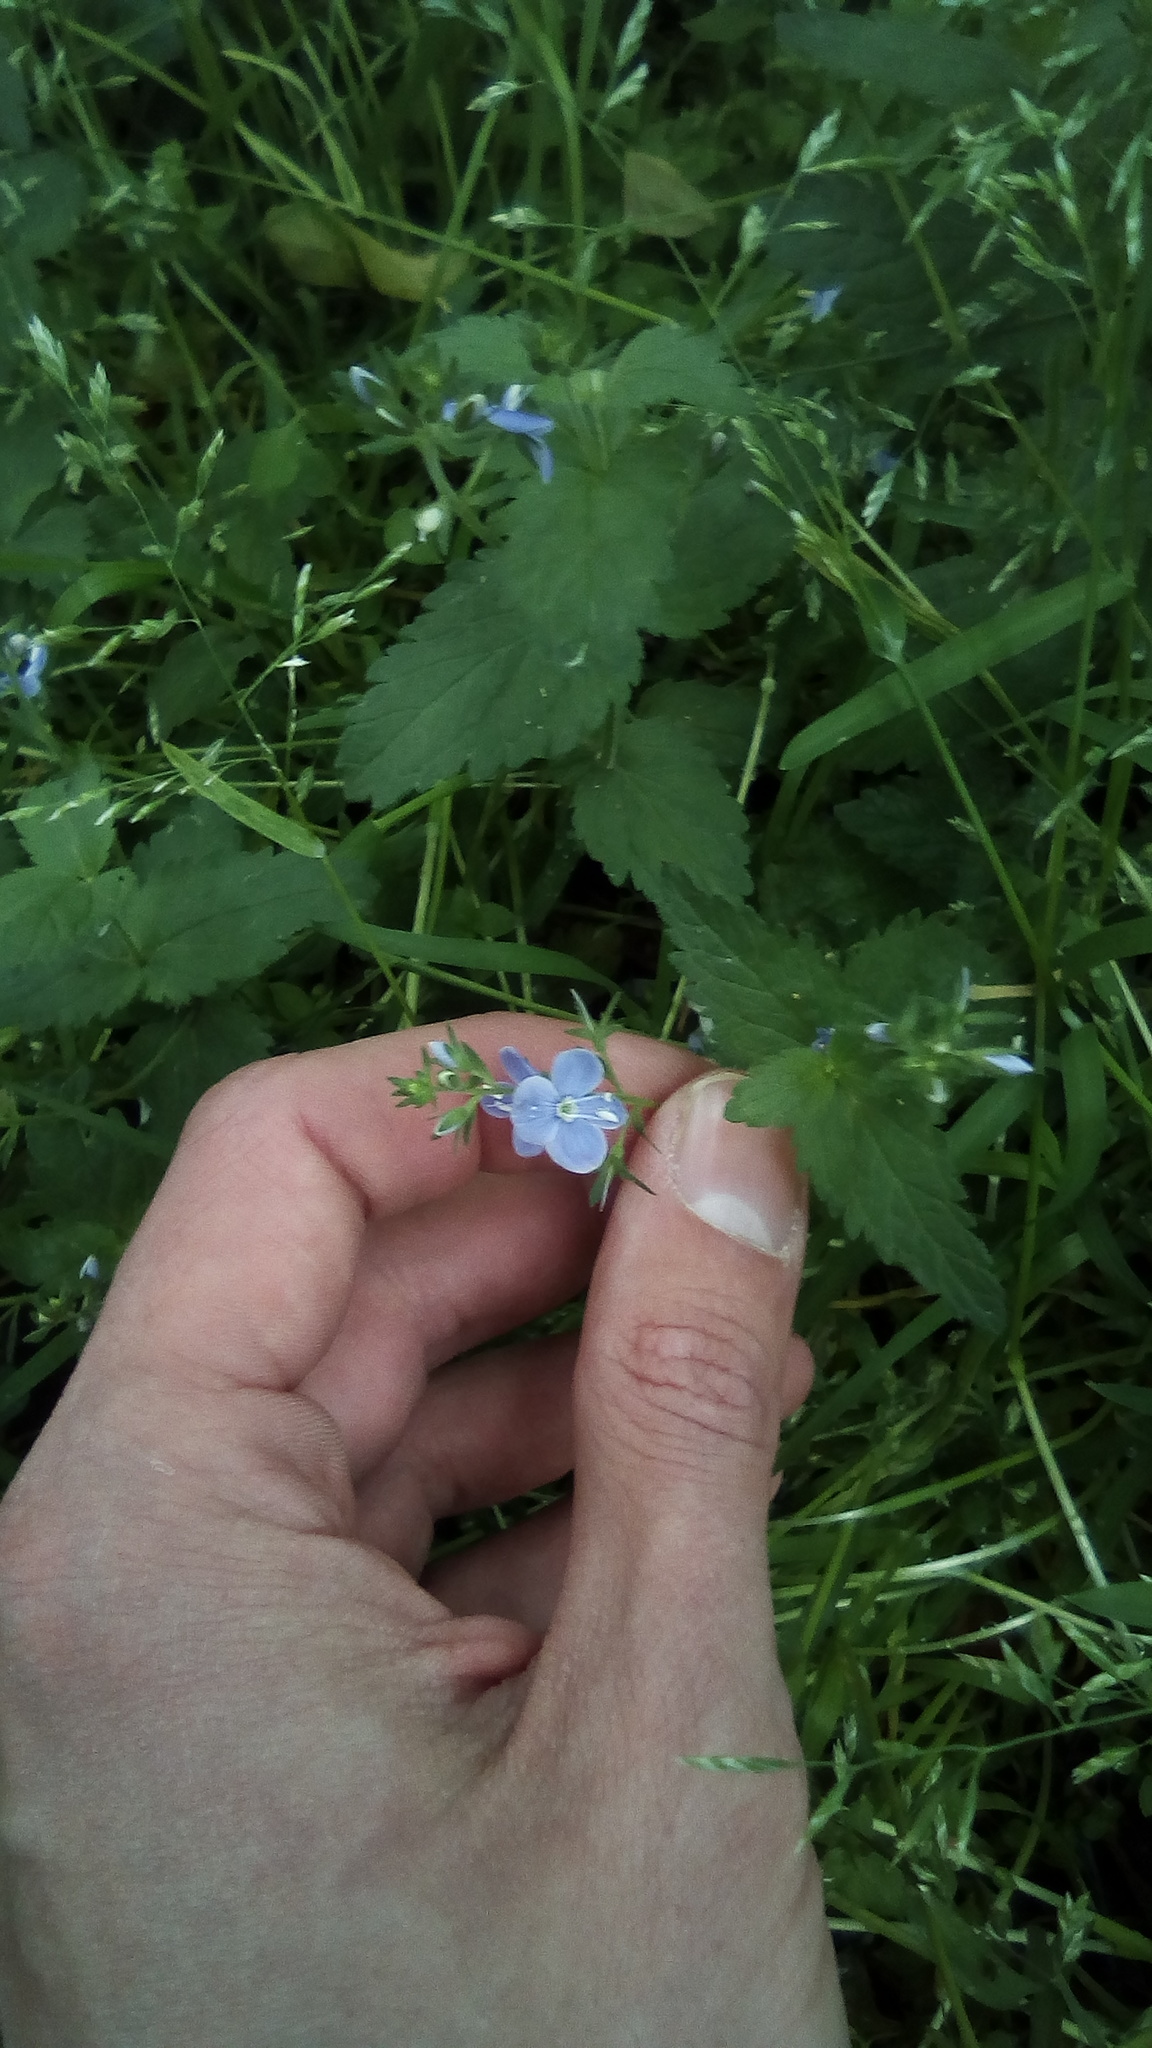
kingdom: Plantae
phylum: Tracheophyta
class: Magnoliopsida
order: Lamiales
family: Plantaginaceae
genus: Veronica
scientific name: Veronica chamaedrys
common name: Germander speedwell
